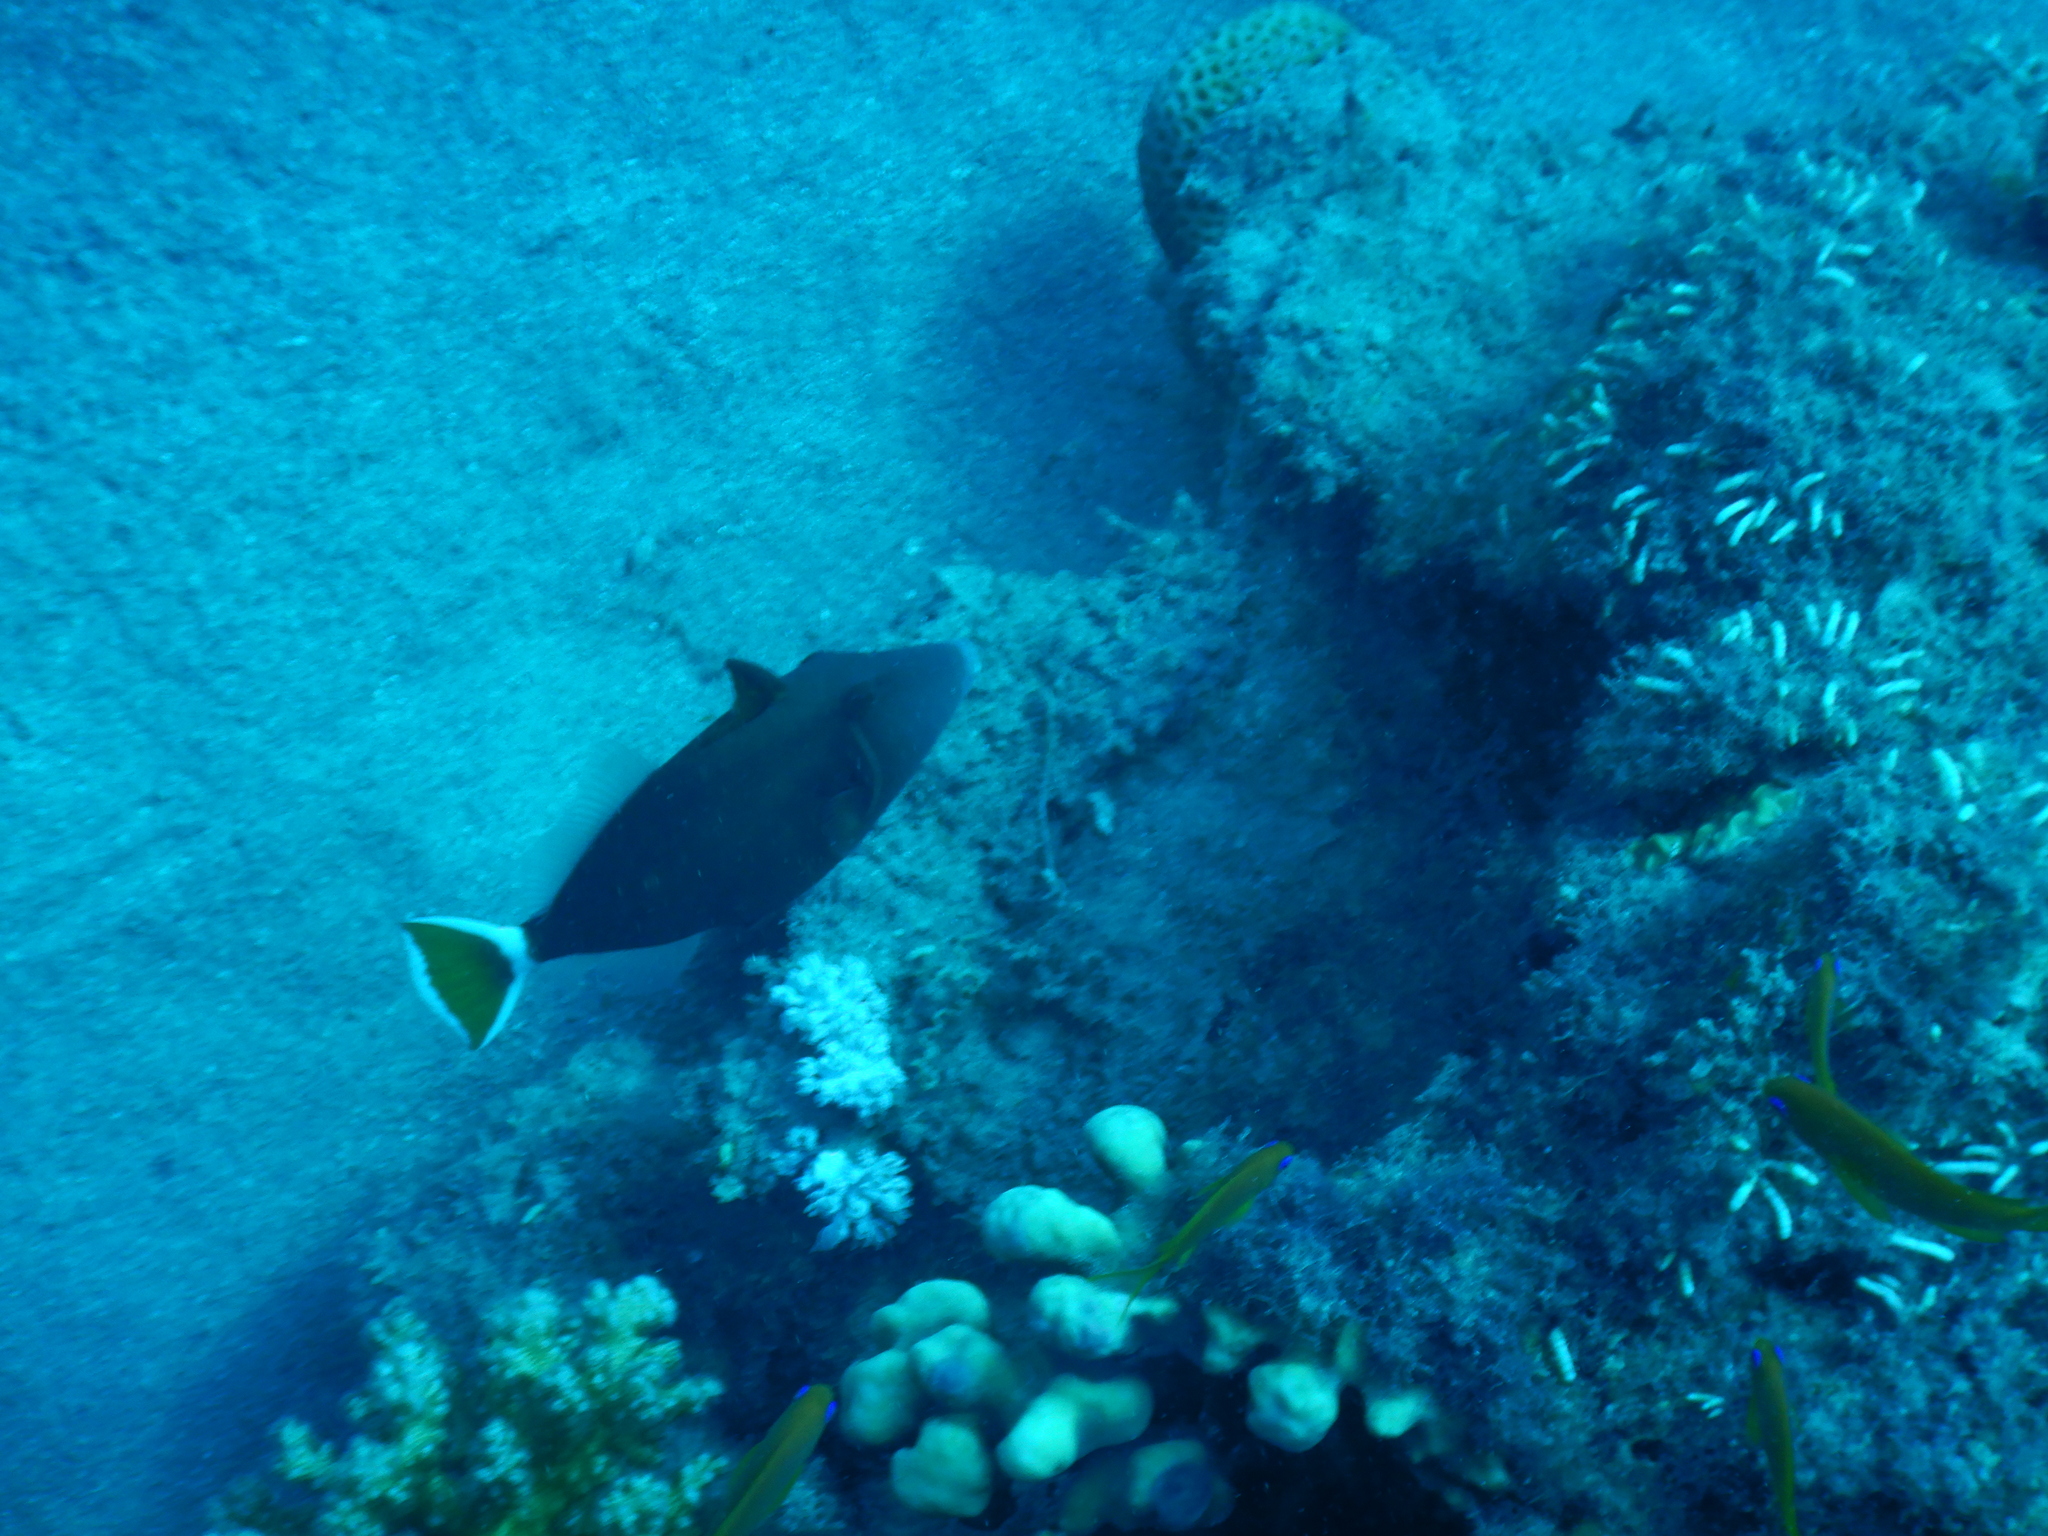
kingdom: Animalia
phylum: Chordata
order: Tetraodontiformes
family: Balistidae
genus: Sufflamen
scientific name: Sufflamen albicaudatum
